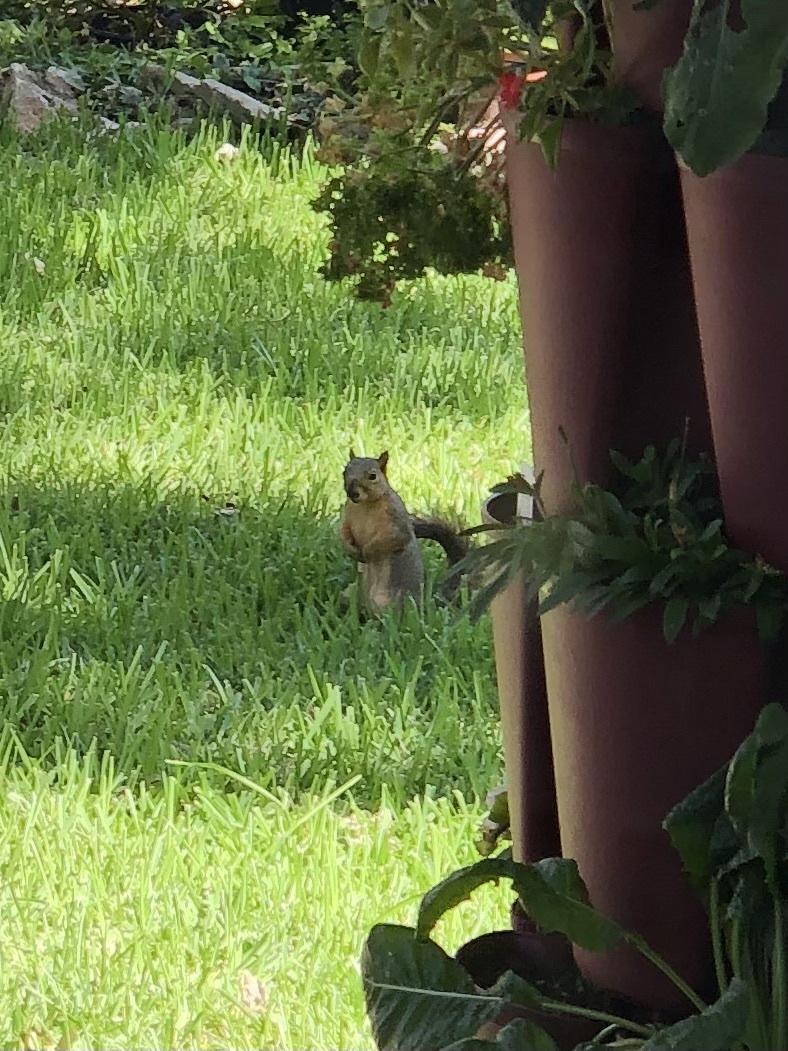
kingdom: Animalia
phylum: Chordata
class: Mammalia
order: Rodentia
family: Sciuridae
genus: Sciurus
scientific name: Sciurus niger
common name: Fox squirrel
